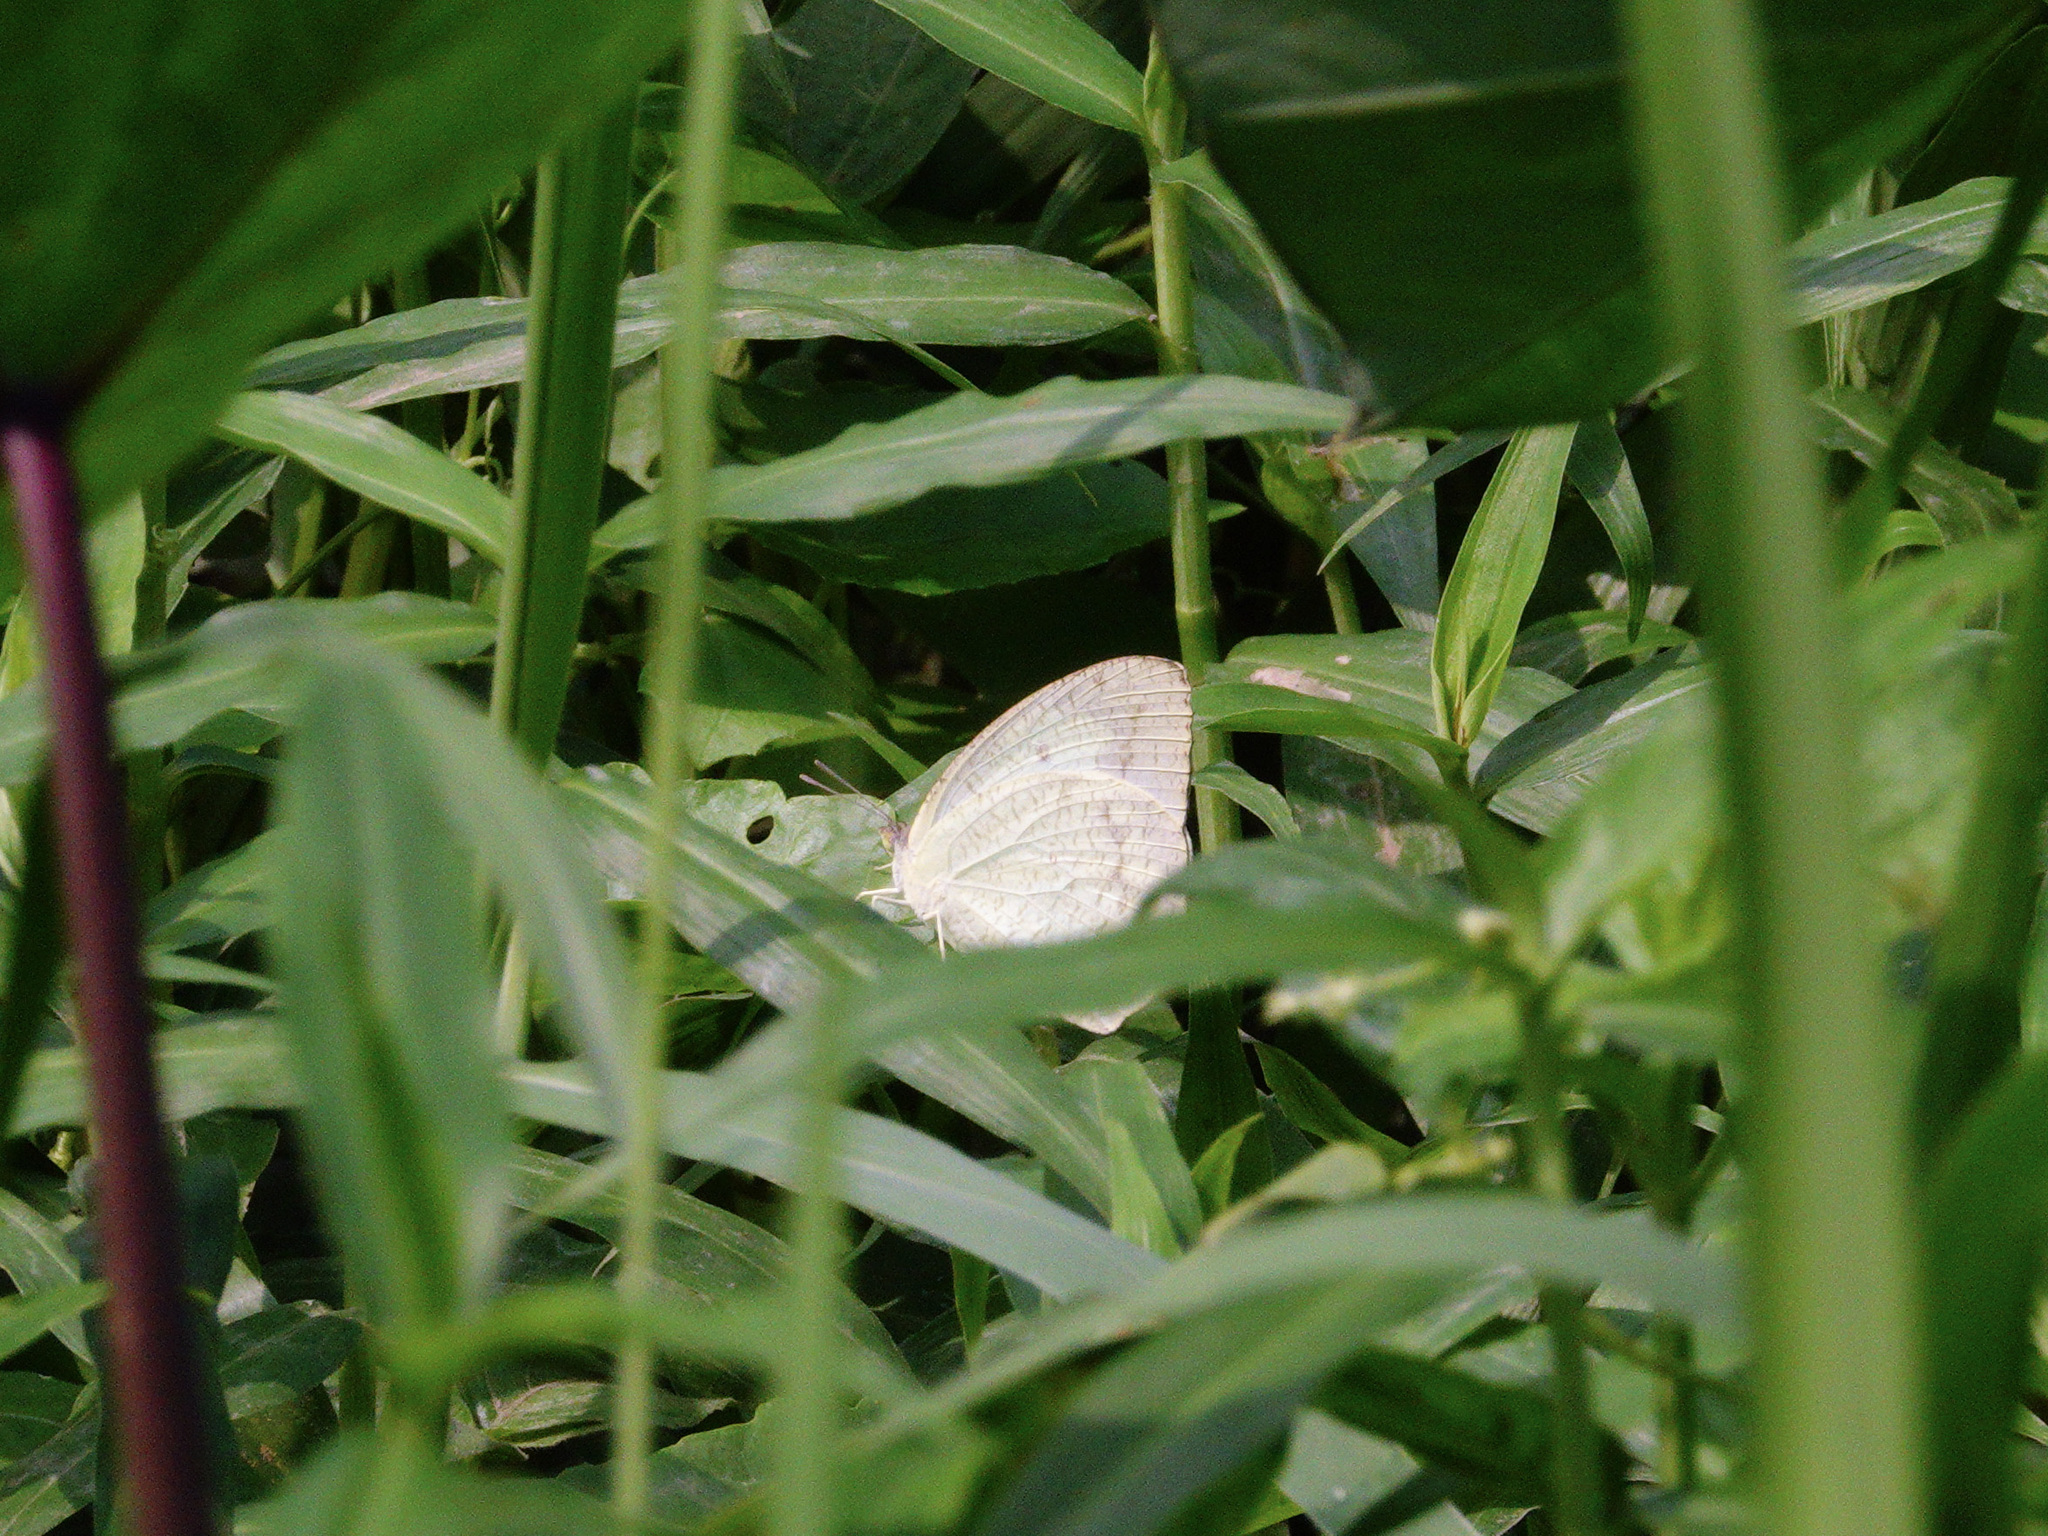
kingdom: Animalia
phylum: Arthropoda
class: Insecta
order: Lepidoptera
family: Pieridae
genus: Catopsilia
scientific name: Catopsilia pyranthe
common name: Mottled emigrant
